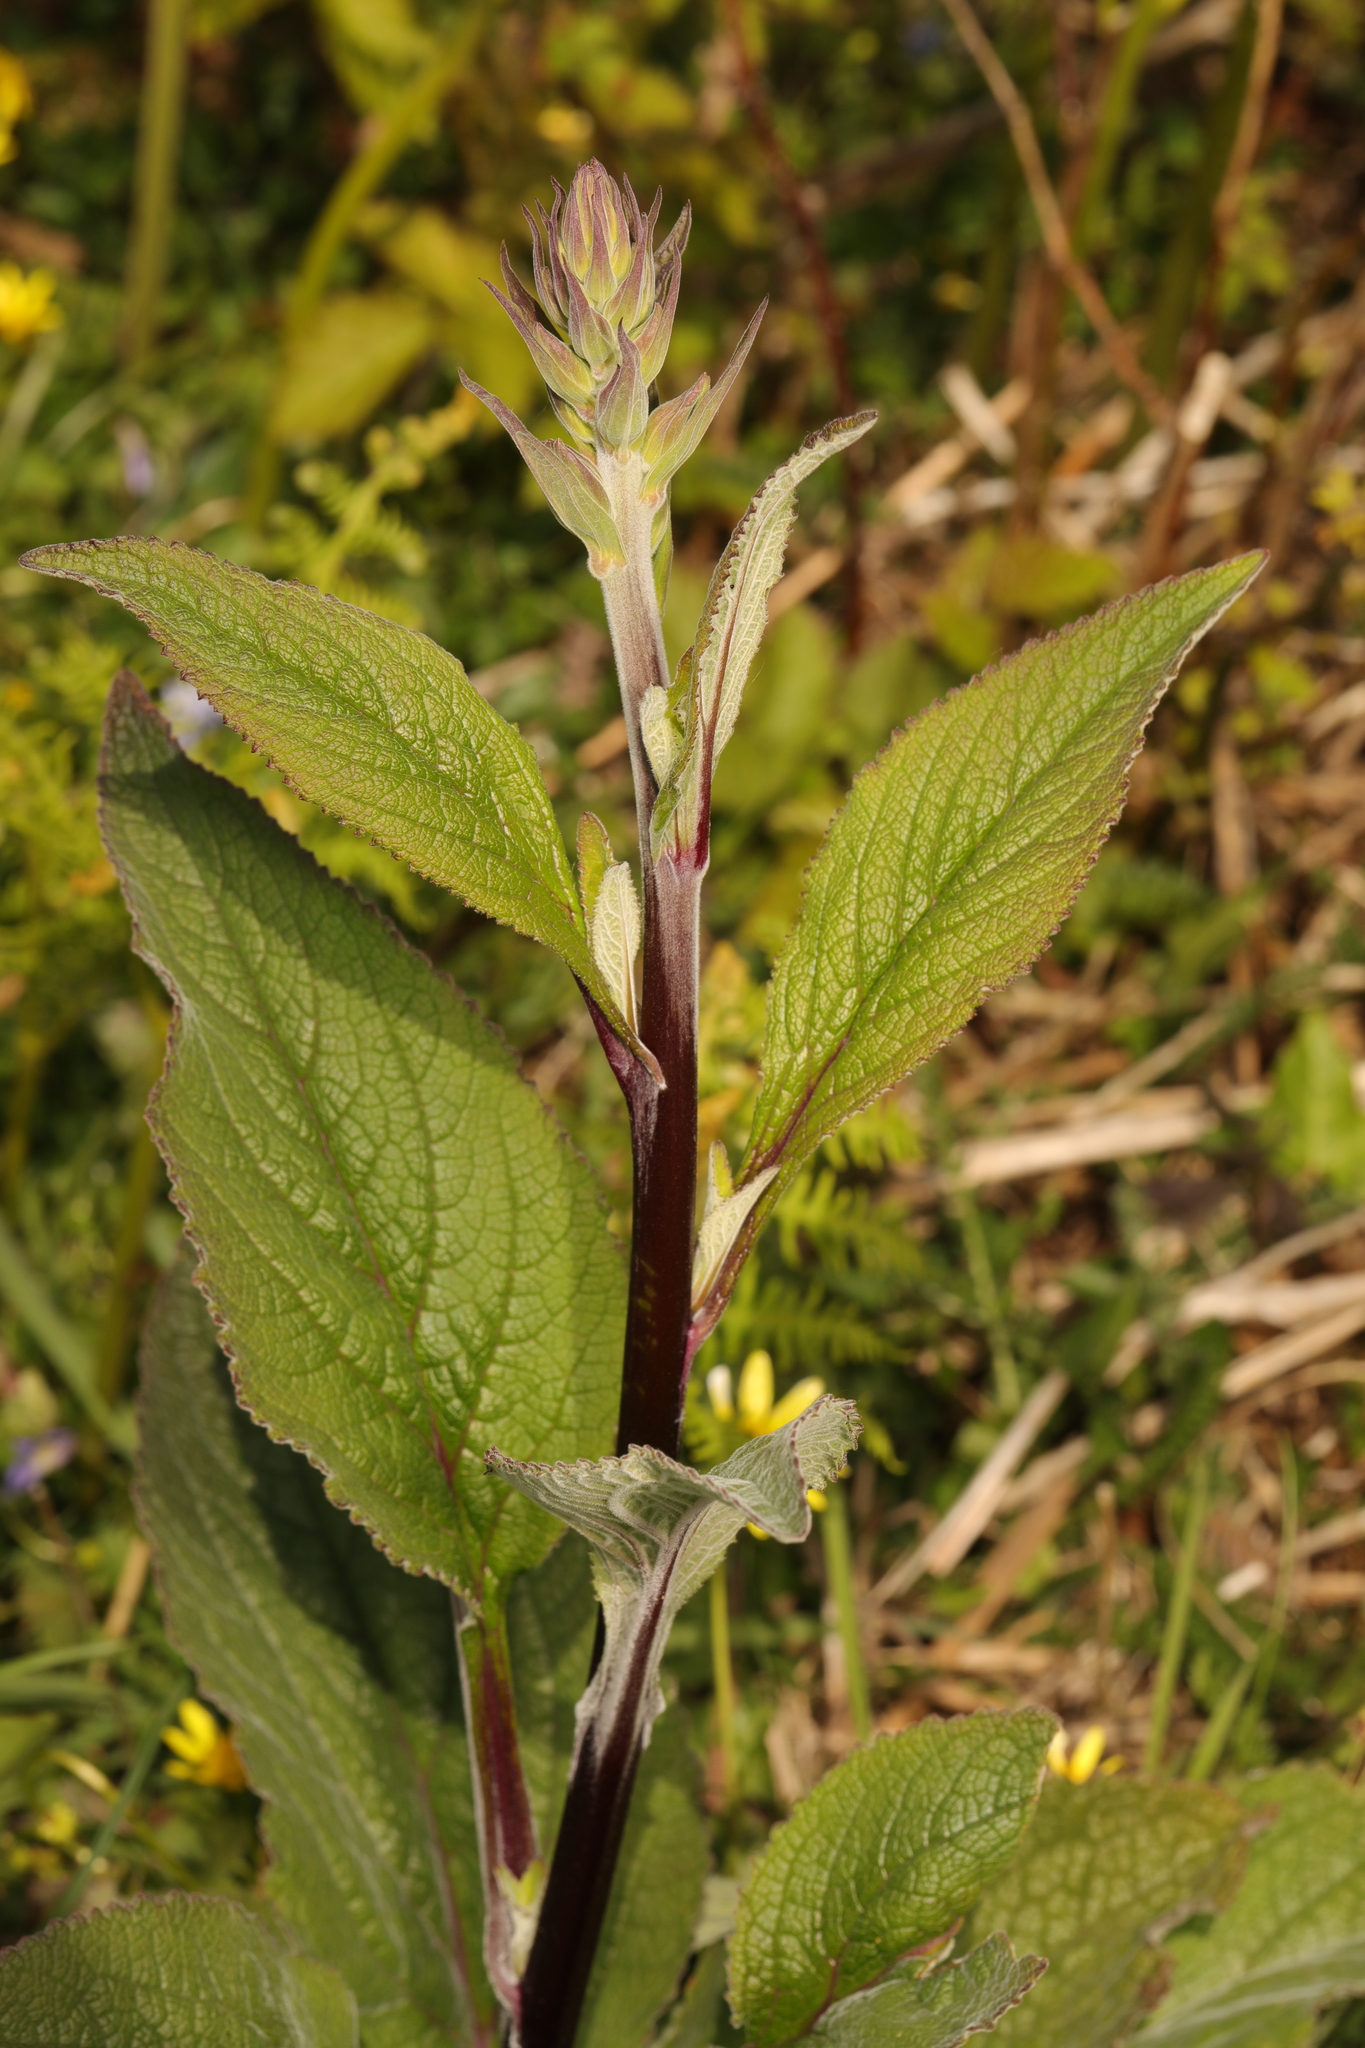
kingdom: Plantae
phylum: Tracheophyta
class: Magnoliopsida
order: Lamiales
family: Plantaginaceae
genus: Digitalis
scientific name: Digitalis purpurea
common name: Foxglove
